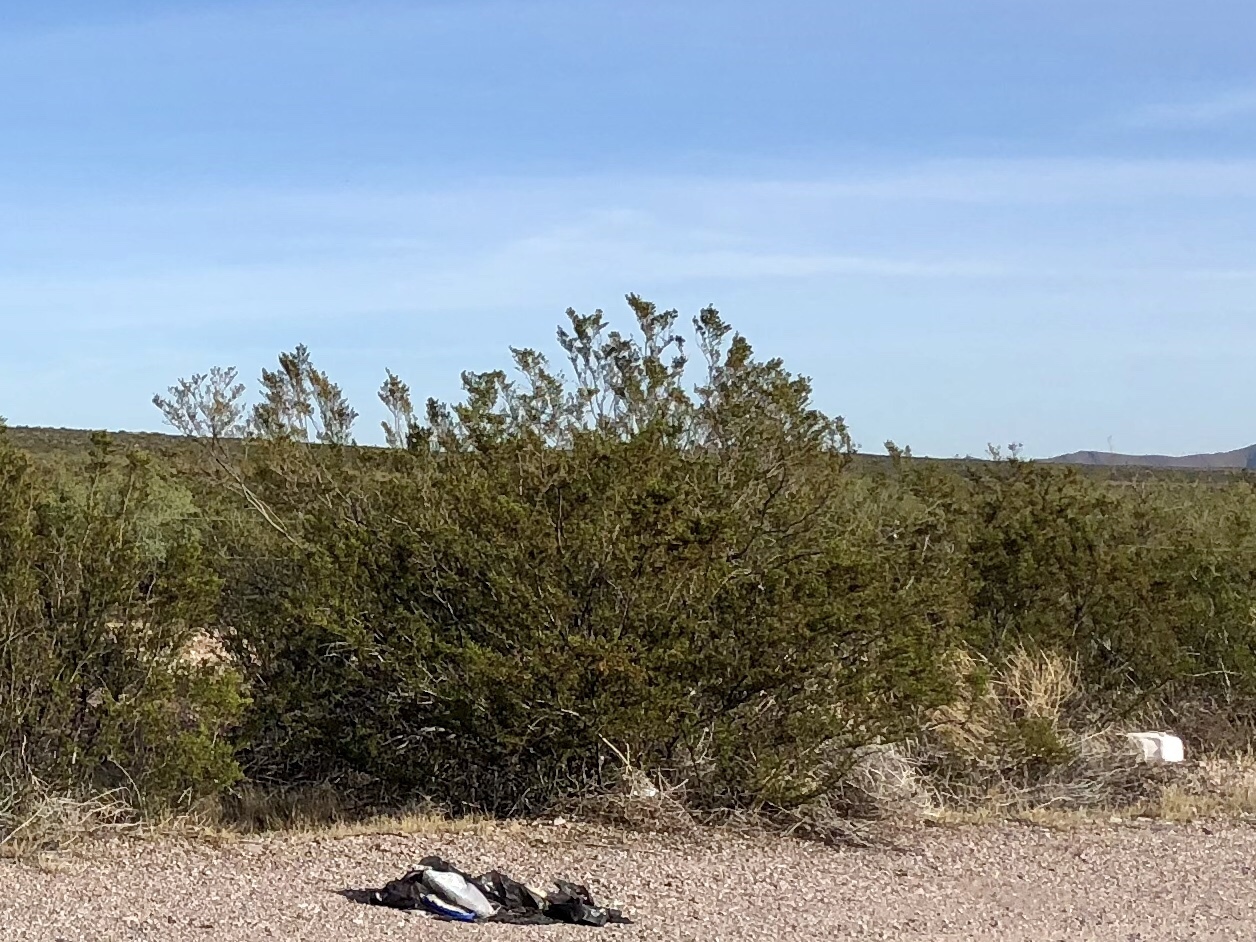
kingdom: Plantae
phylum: Tracheophyta
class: Magnoliopsida
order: Zygophyllales
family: Zygophyllaceae
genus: Larrea
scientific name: Larrea tridentata
